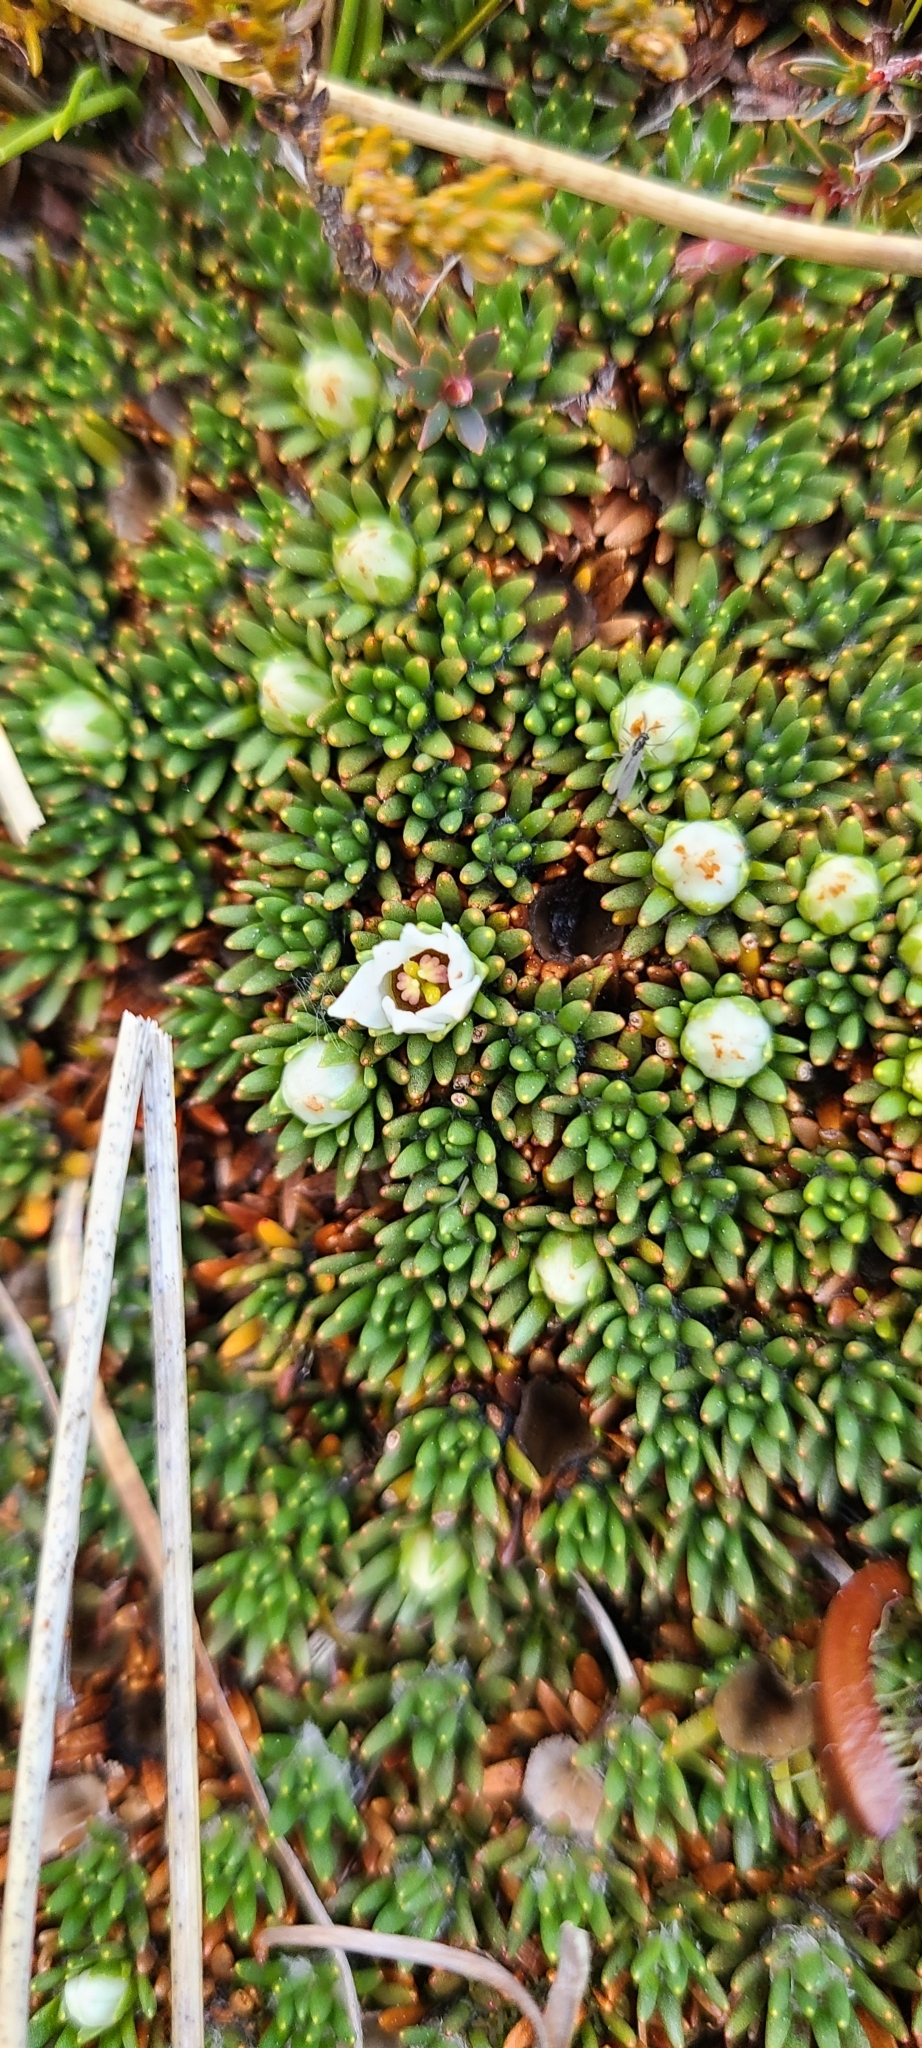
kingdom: Plantae
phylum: Tracheophyta
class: Magnoliopsida
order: Asterales
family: Stylidiaceae
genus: Donatia
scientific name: Donatia novae-zelandiae
